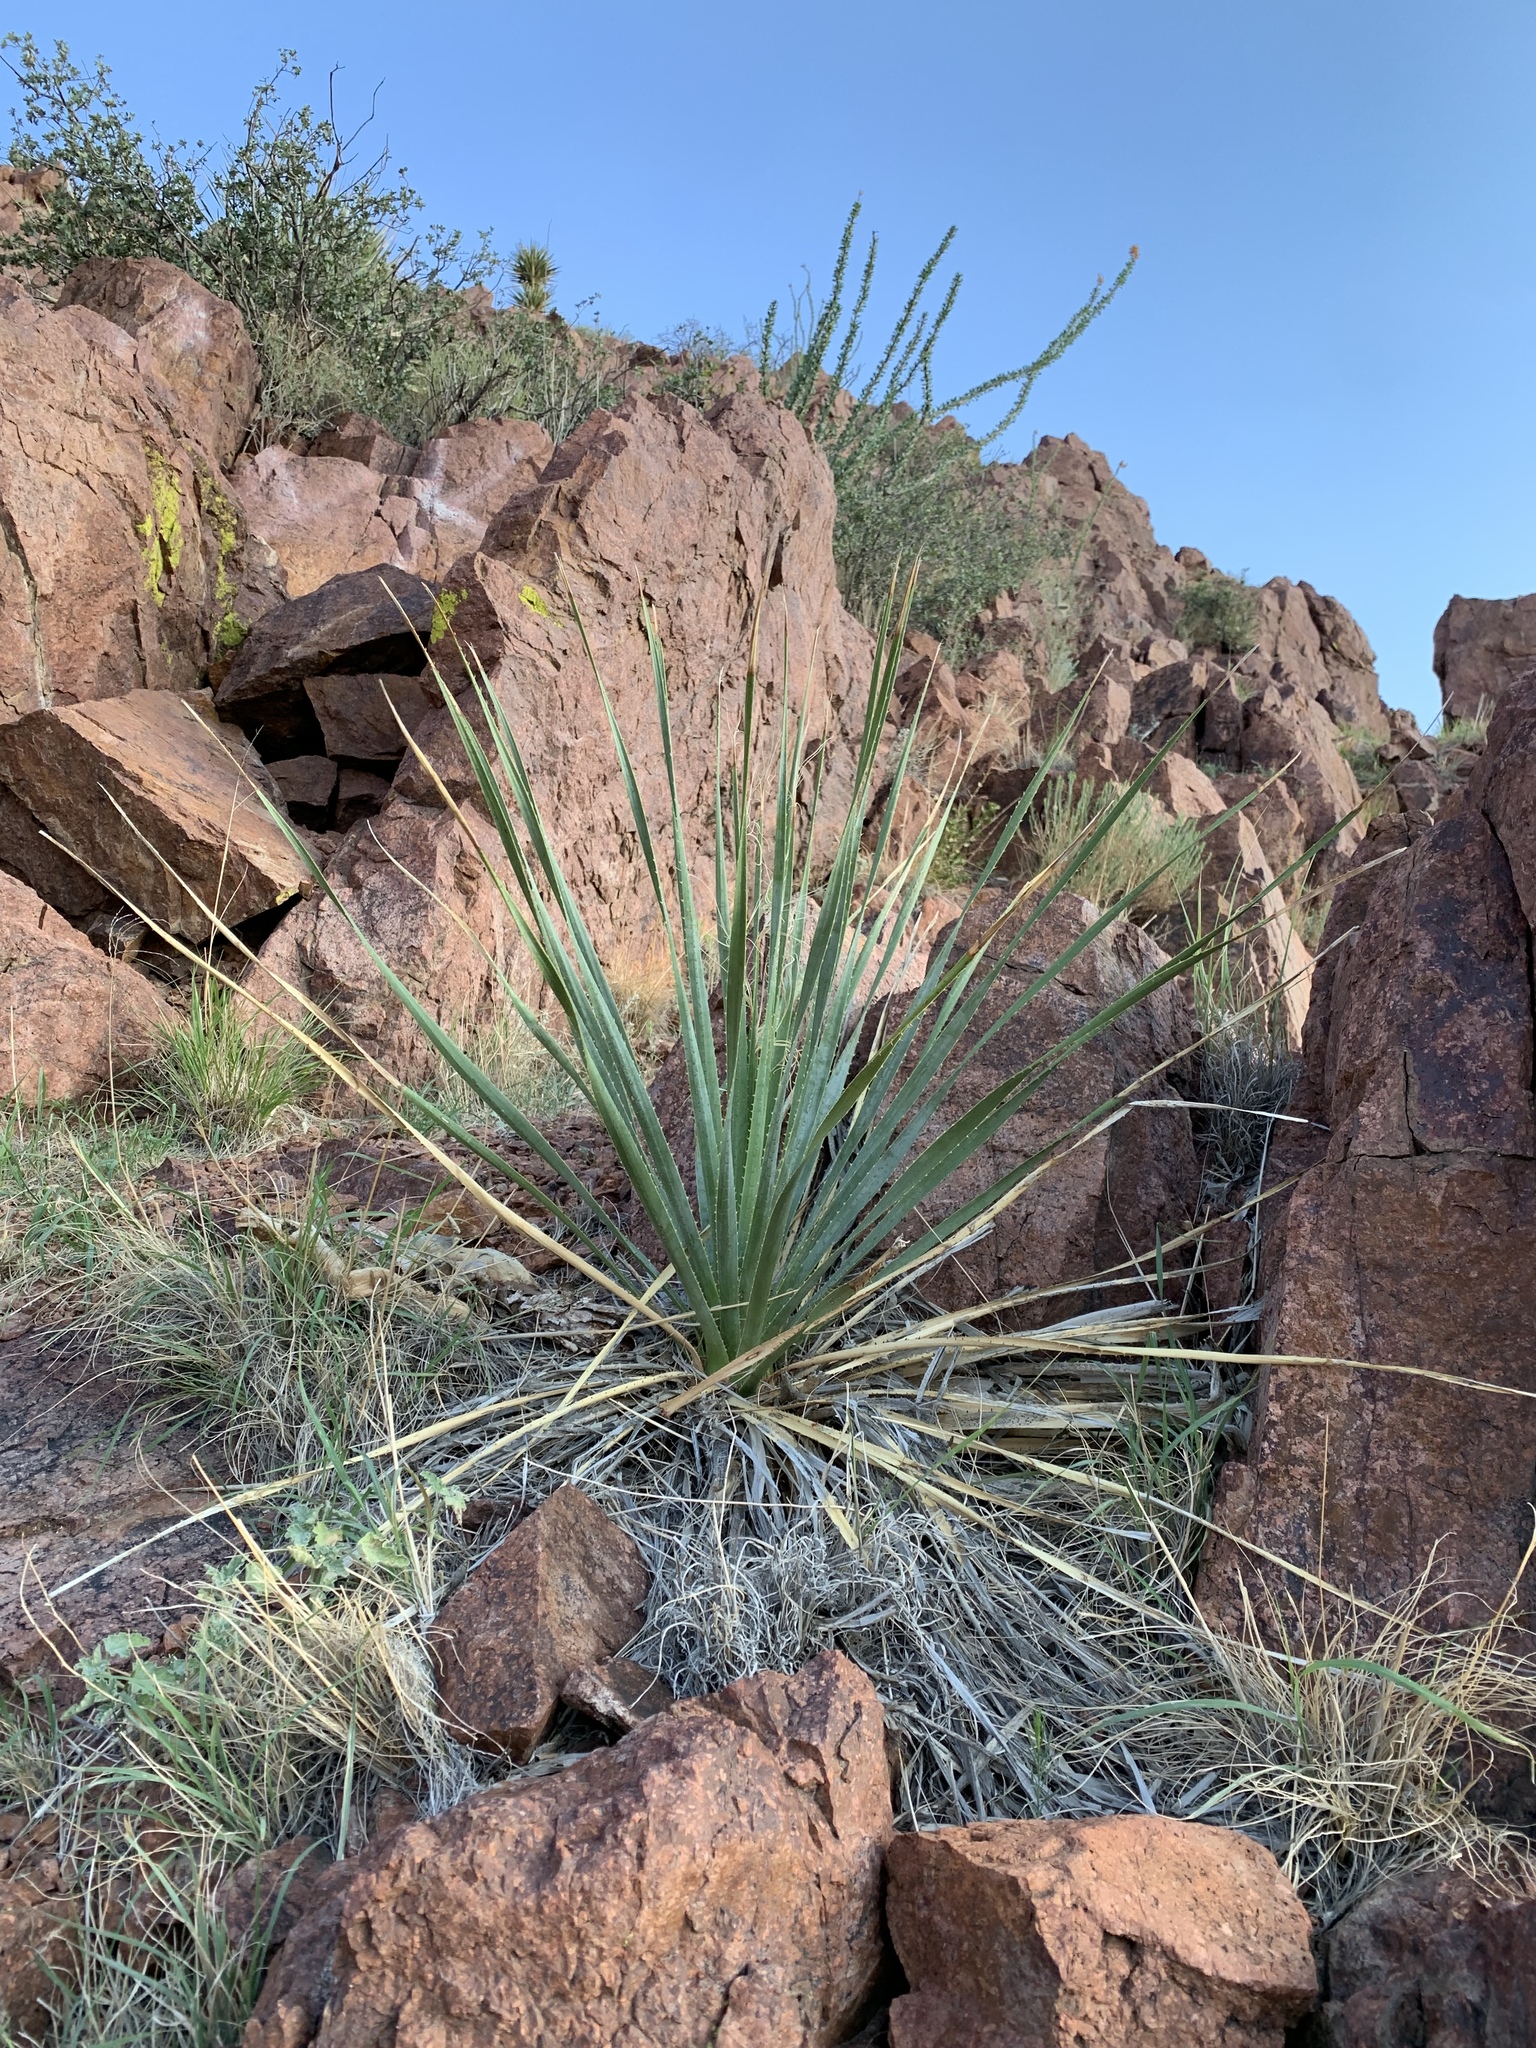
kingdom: Plantae
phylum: Tracheophyta
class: Liliopsida
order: Asparagales
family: Asparagaceae
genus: Dasylirion
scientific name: Dasylirion wheeleri
